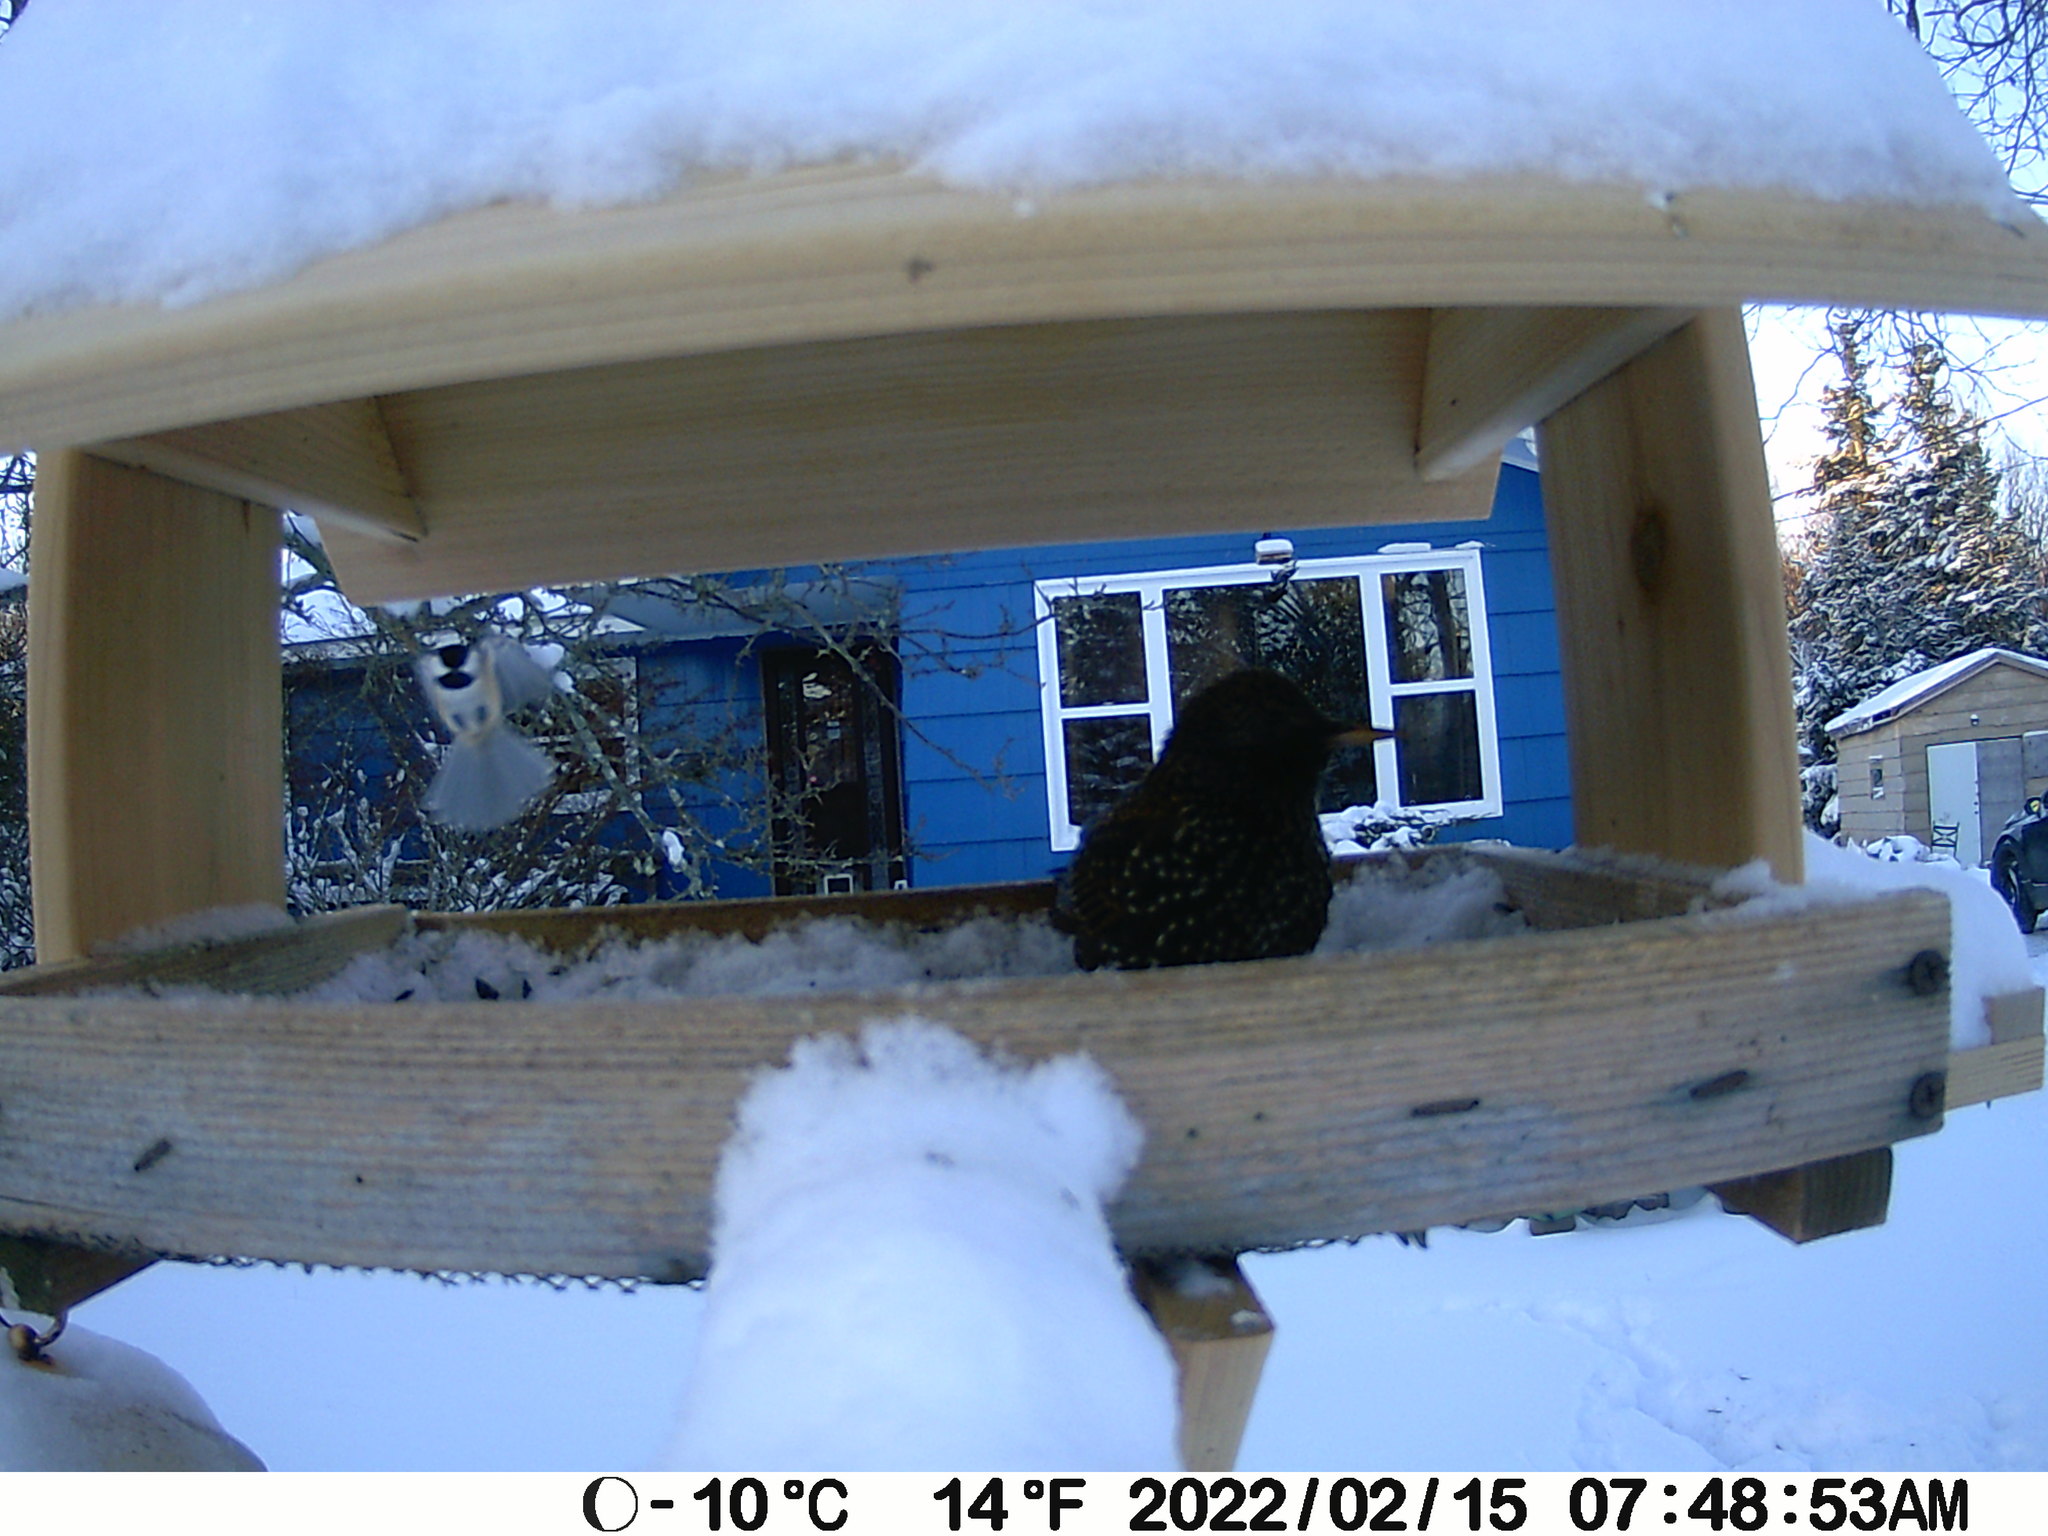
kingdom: Animalia
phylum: Chordata
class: Aves
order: Passeriformes
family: Sturnidae
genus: Sturnus
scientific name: Sturnus vulgaris
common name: Common starling
